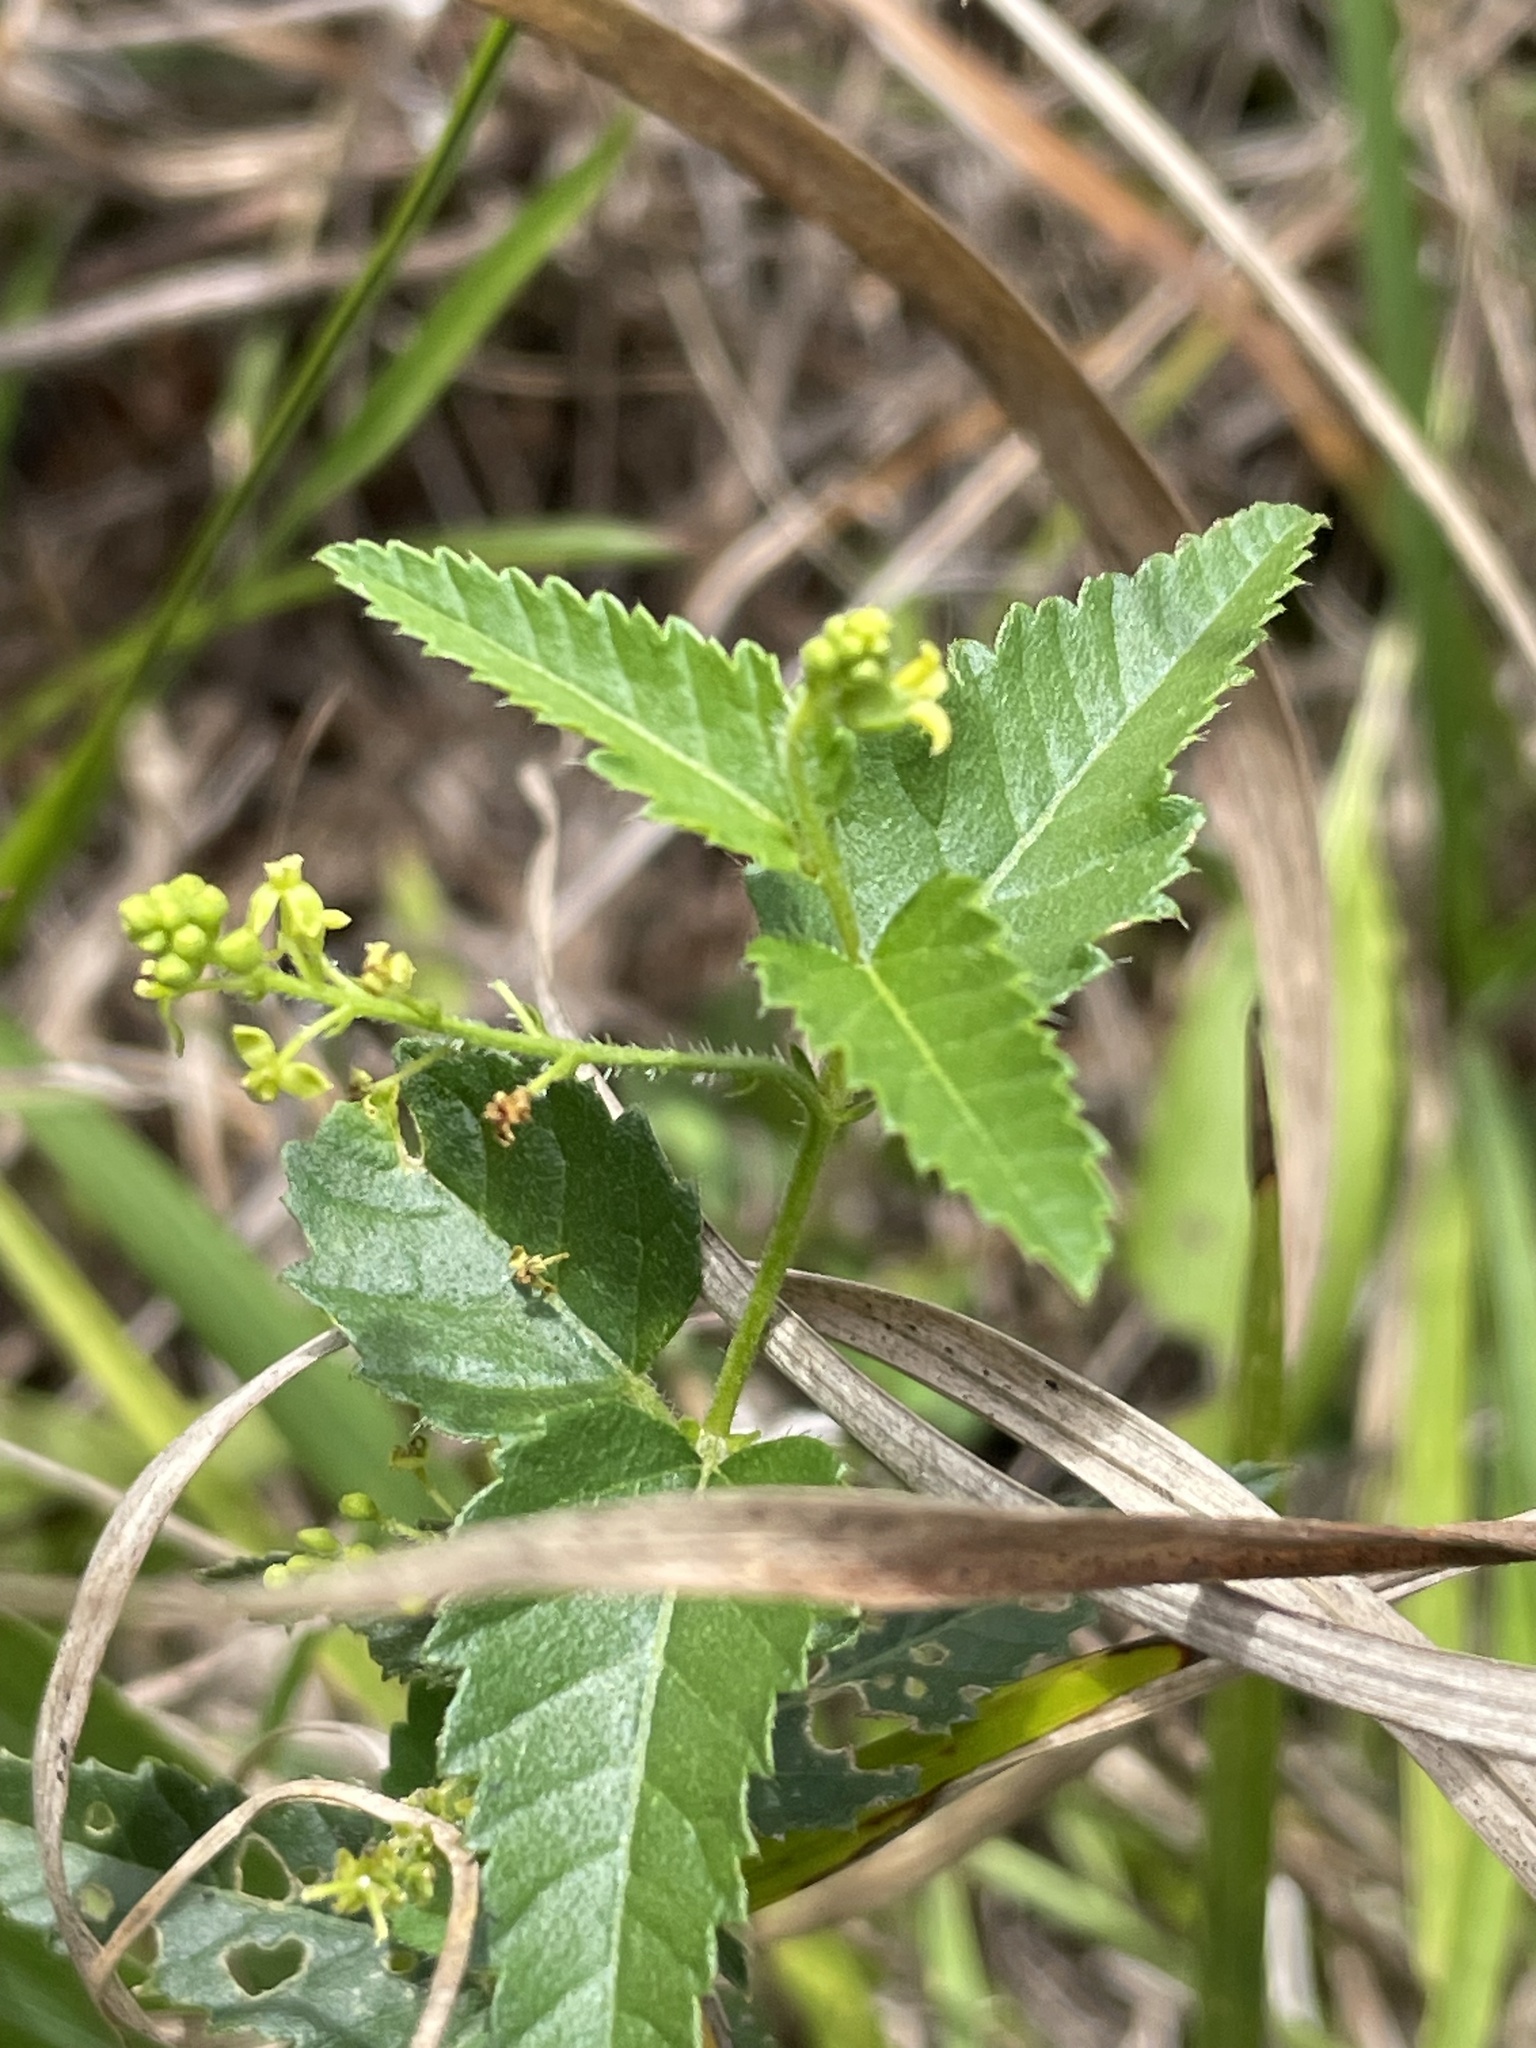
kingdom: Plantae
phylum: Tracheophyta
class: Magnoliopsida
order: Malpighiales
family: Euphorbiaceae
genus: Tragia
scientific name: Tragia urticifolia
